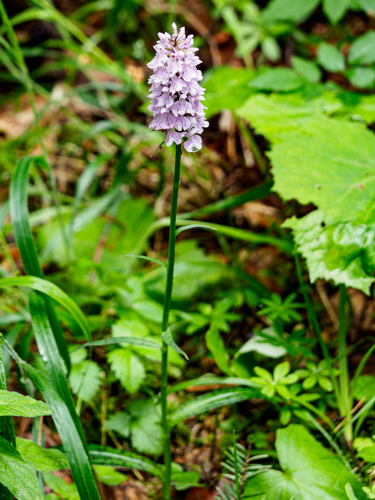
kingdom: Plantae
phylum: Tracheophyta
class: Liliopsida
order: Asparagales
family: Orchidaceae
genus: Dactylorhiza
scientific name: Dactylorhiza maculata
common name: Heath spotted-orchid
